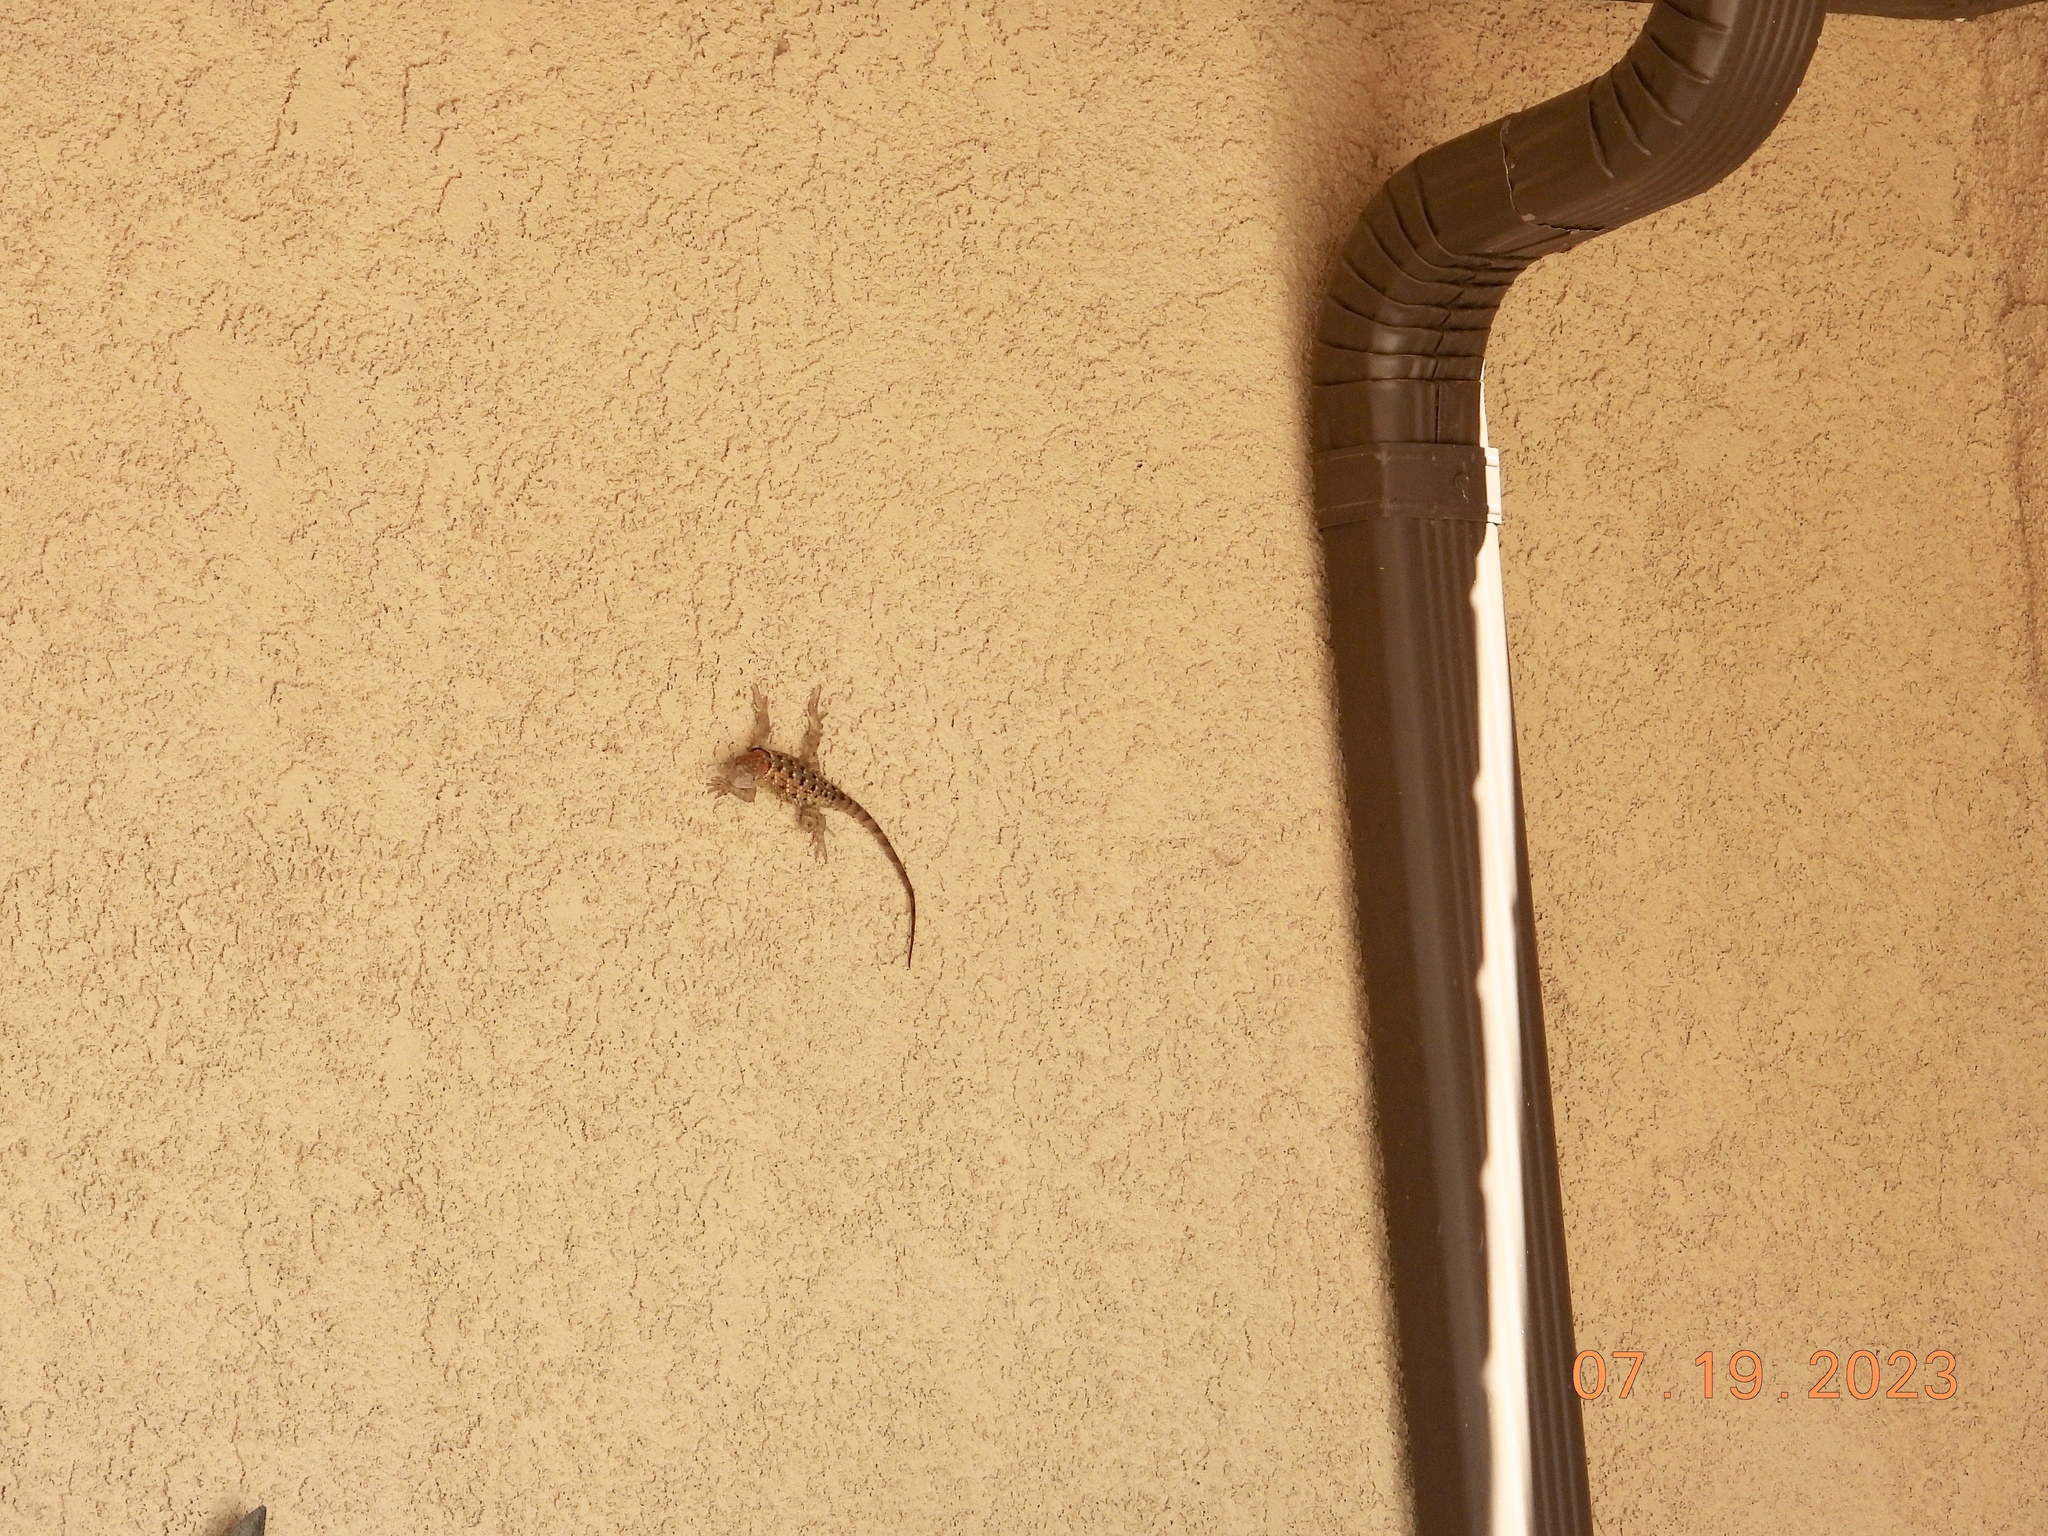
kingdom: Animalia
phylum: Chordata
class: Squamata
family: Phrynosomatidae
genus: Sceloporus
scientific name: Sceloporus magister
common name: Desert spiny lizard
